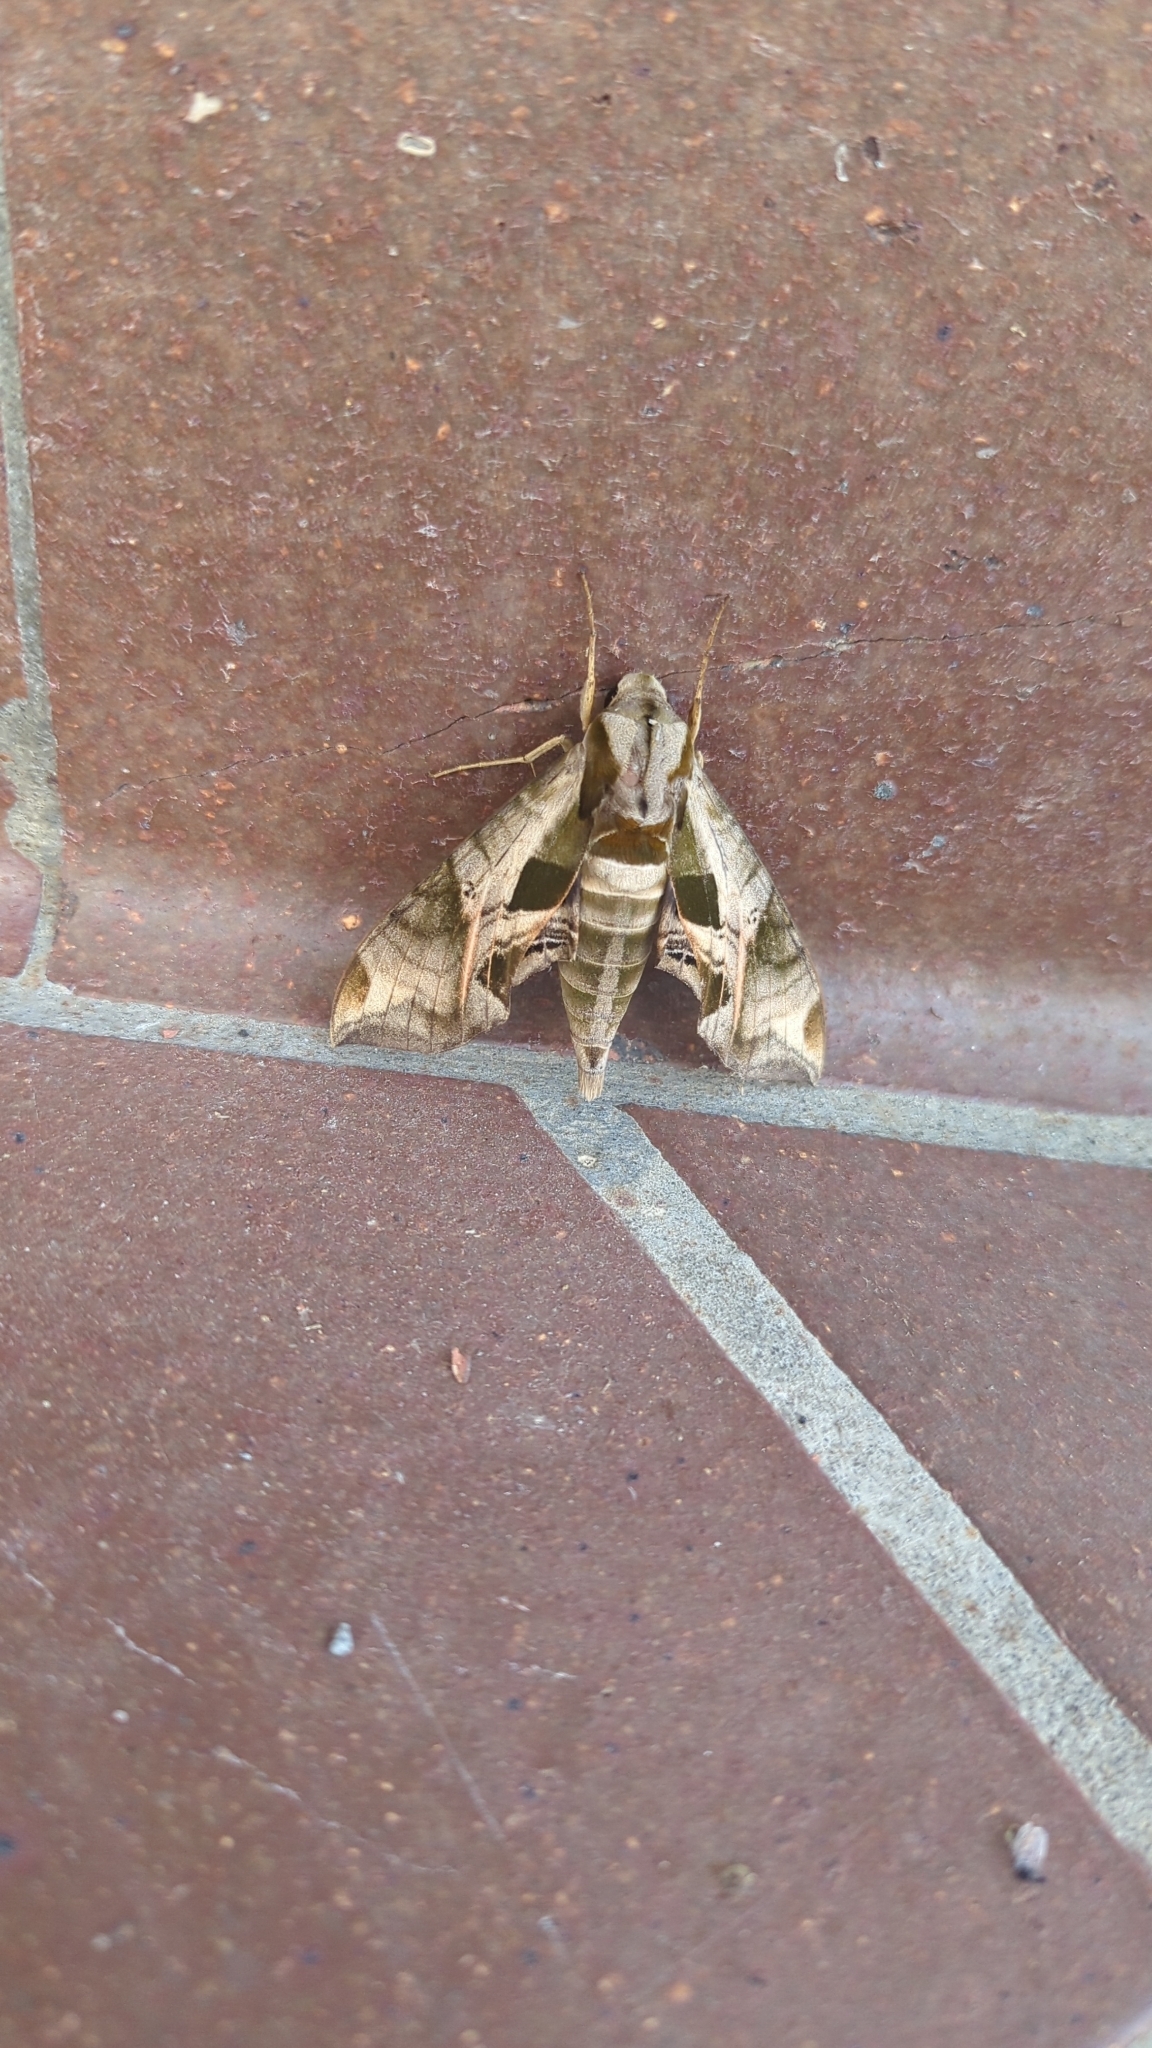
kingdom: Animalia
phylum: Arthropoda
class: Insecta
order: Lepidoptera
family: Sphingidae
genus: Eumorpha
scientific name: Eumorpha pandorus
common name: Pandora sphinx
